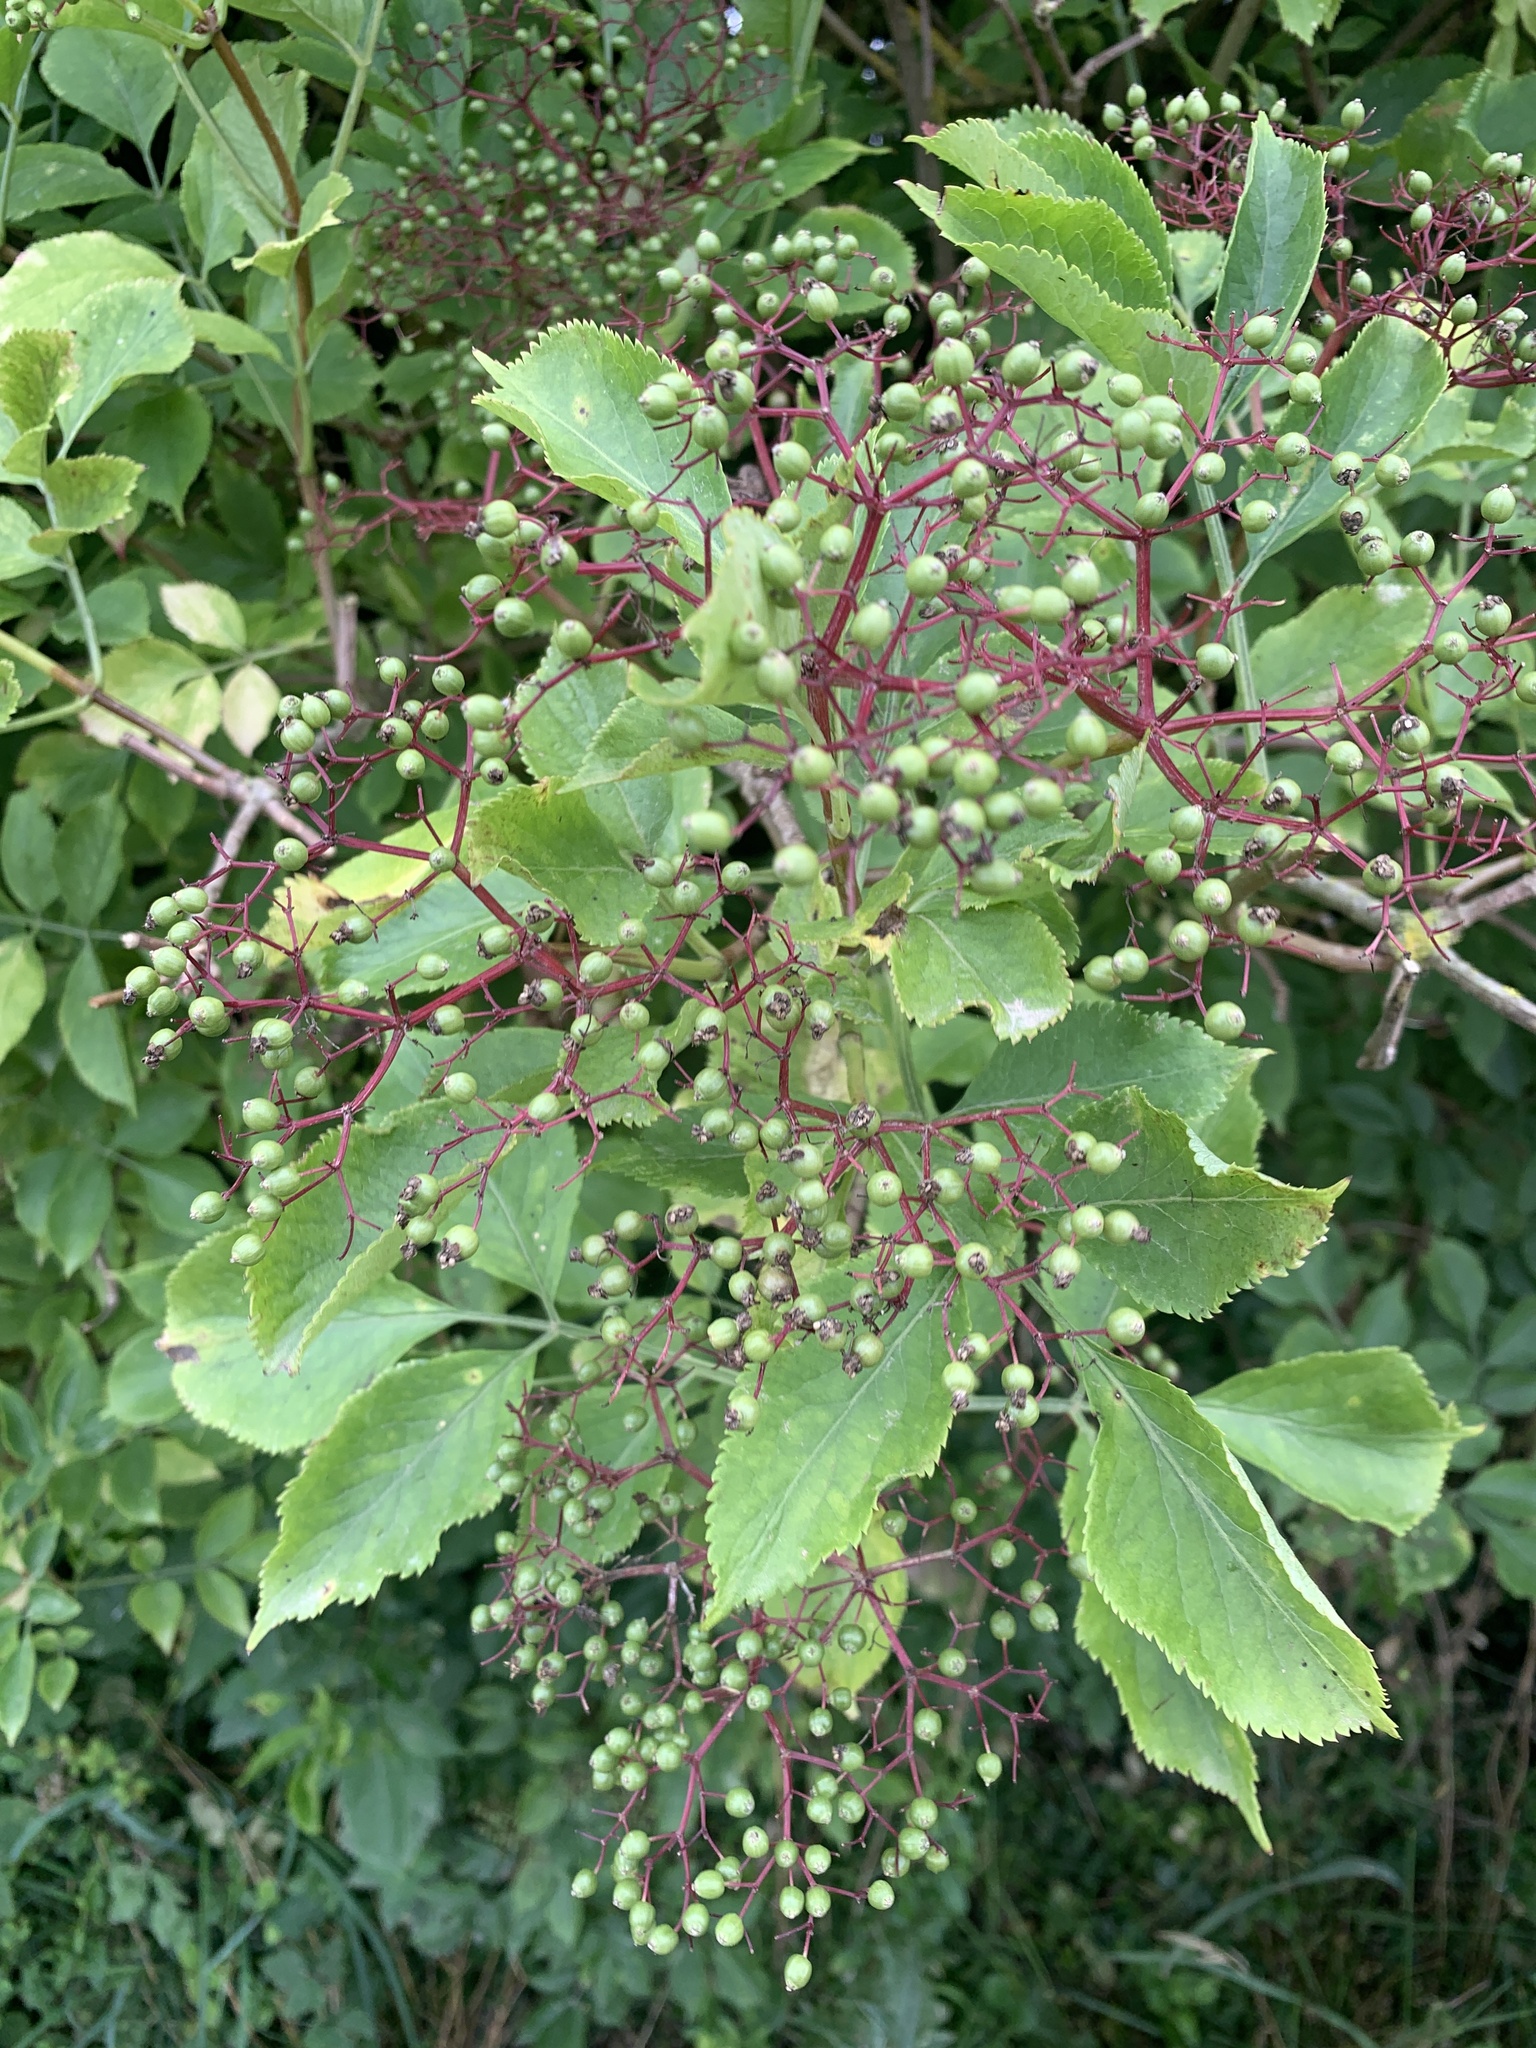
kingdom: Plantae
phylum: Tracheophyta
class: Magnoliopsida
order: Dipsacales
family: Viburnaceae
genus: Sambucus
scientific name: Sambucus nigra
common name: Elder
